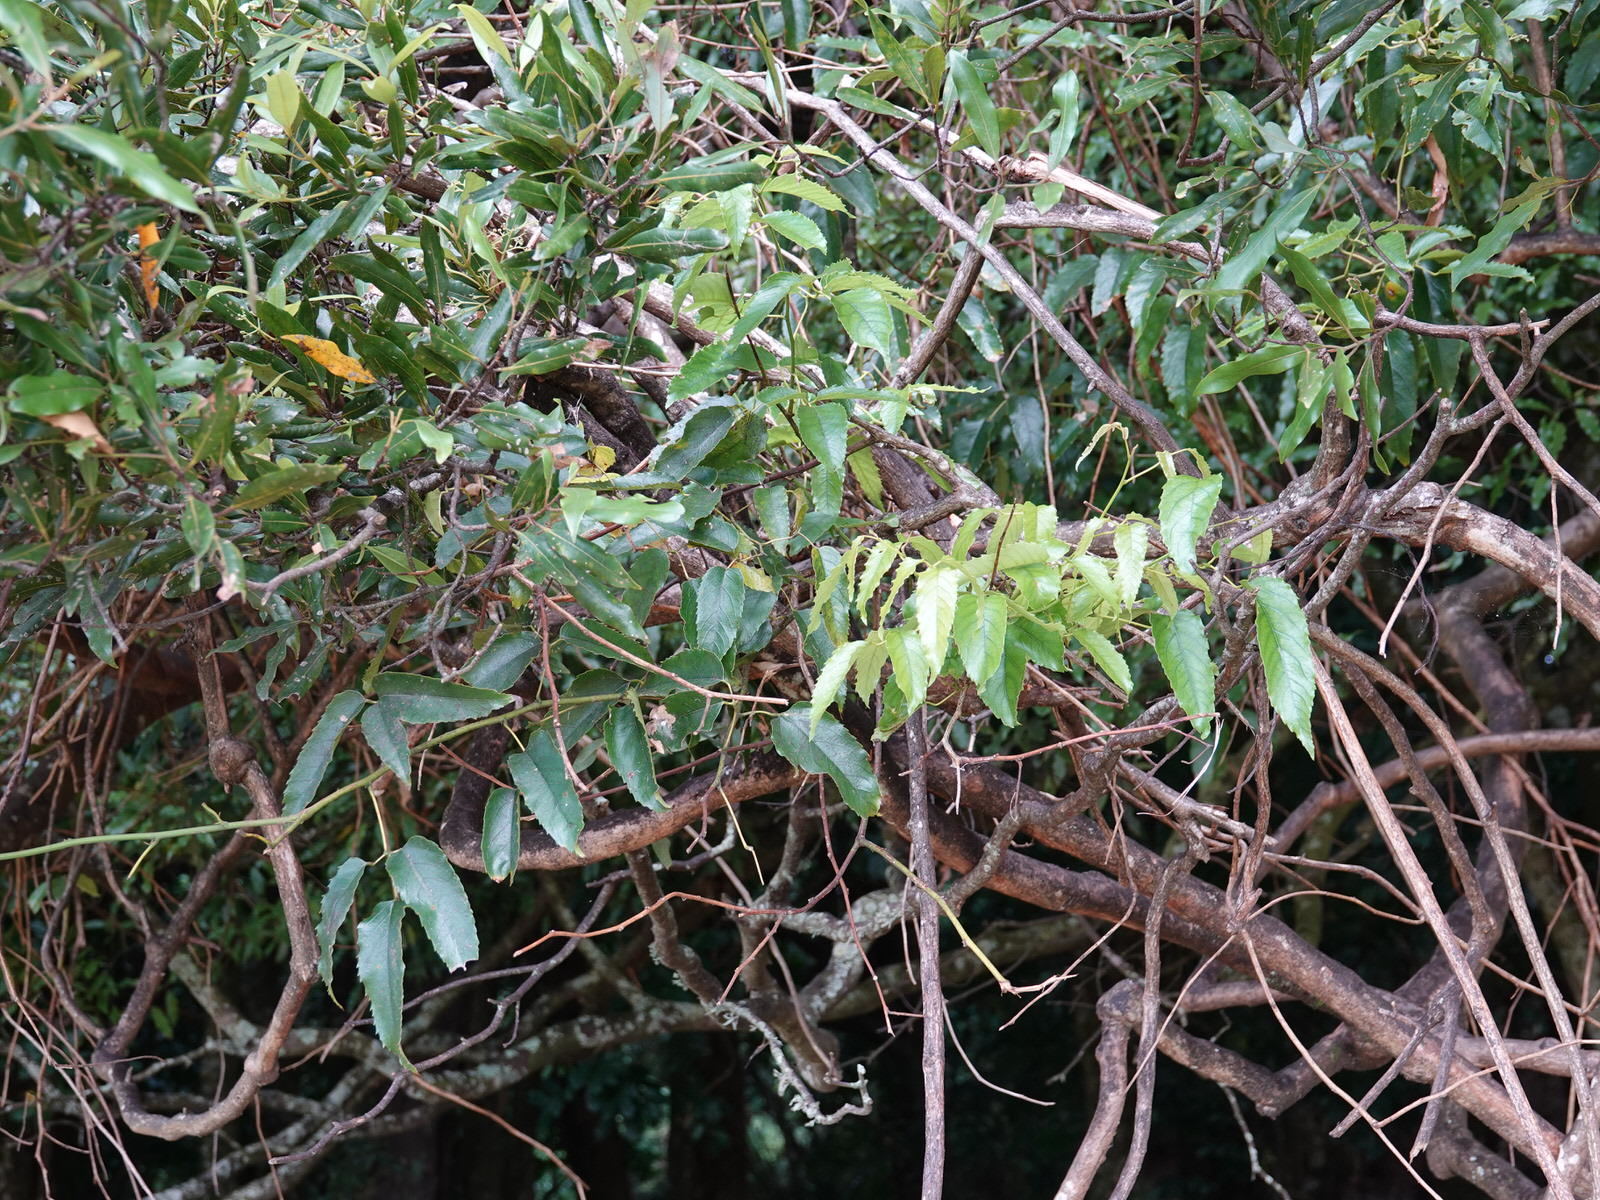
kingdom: Plantae
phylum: Tracheophyta
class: Magnoliopsida
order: Rosales
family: Rosaceae
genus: Rubus
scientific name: Rubus cissoides
